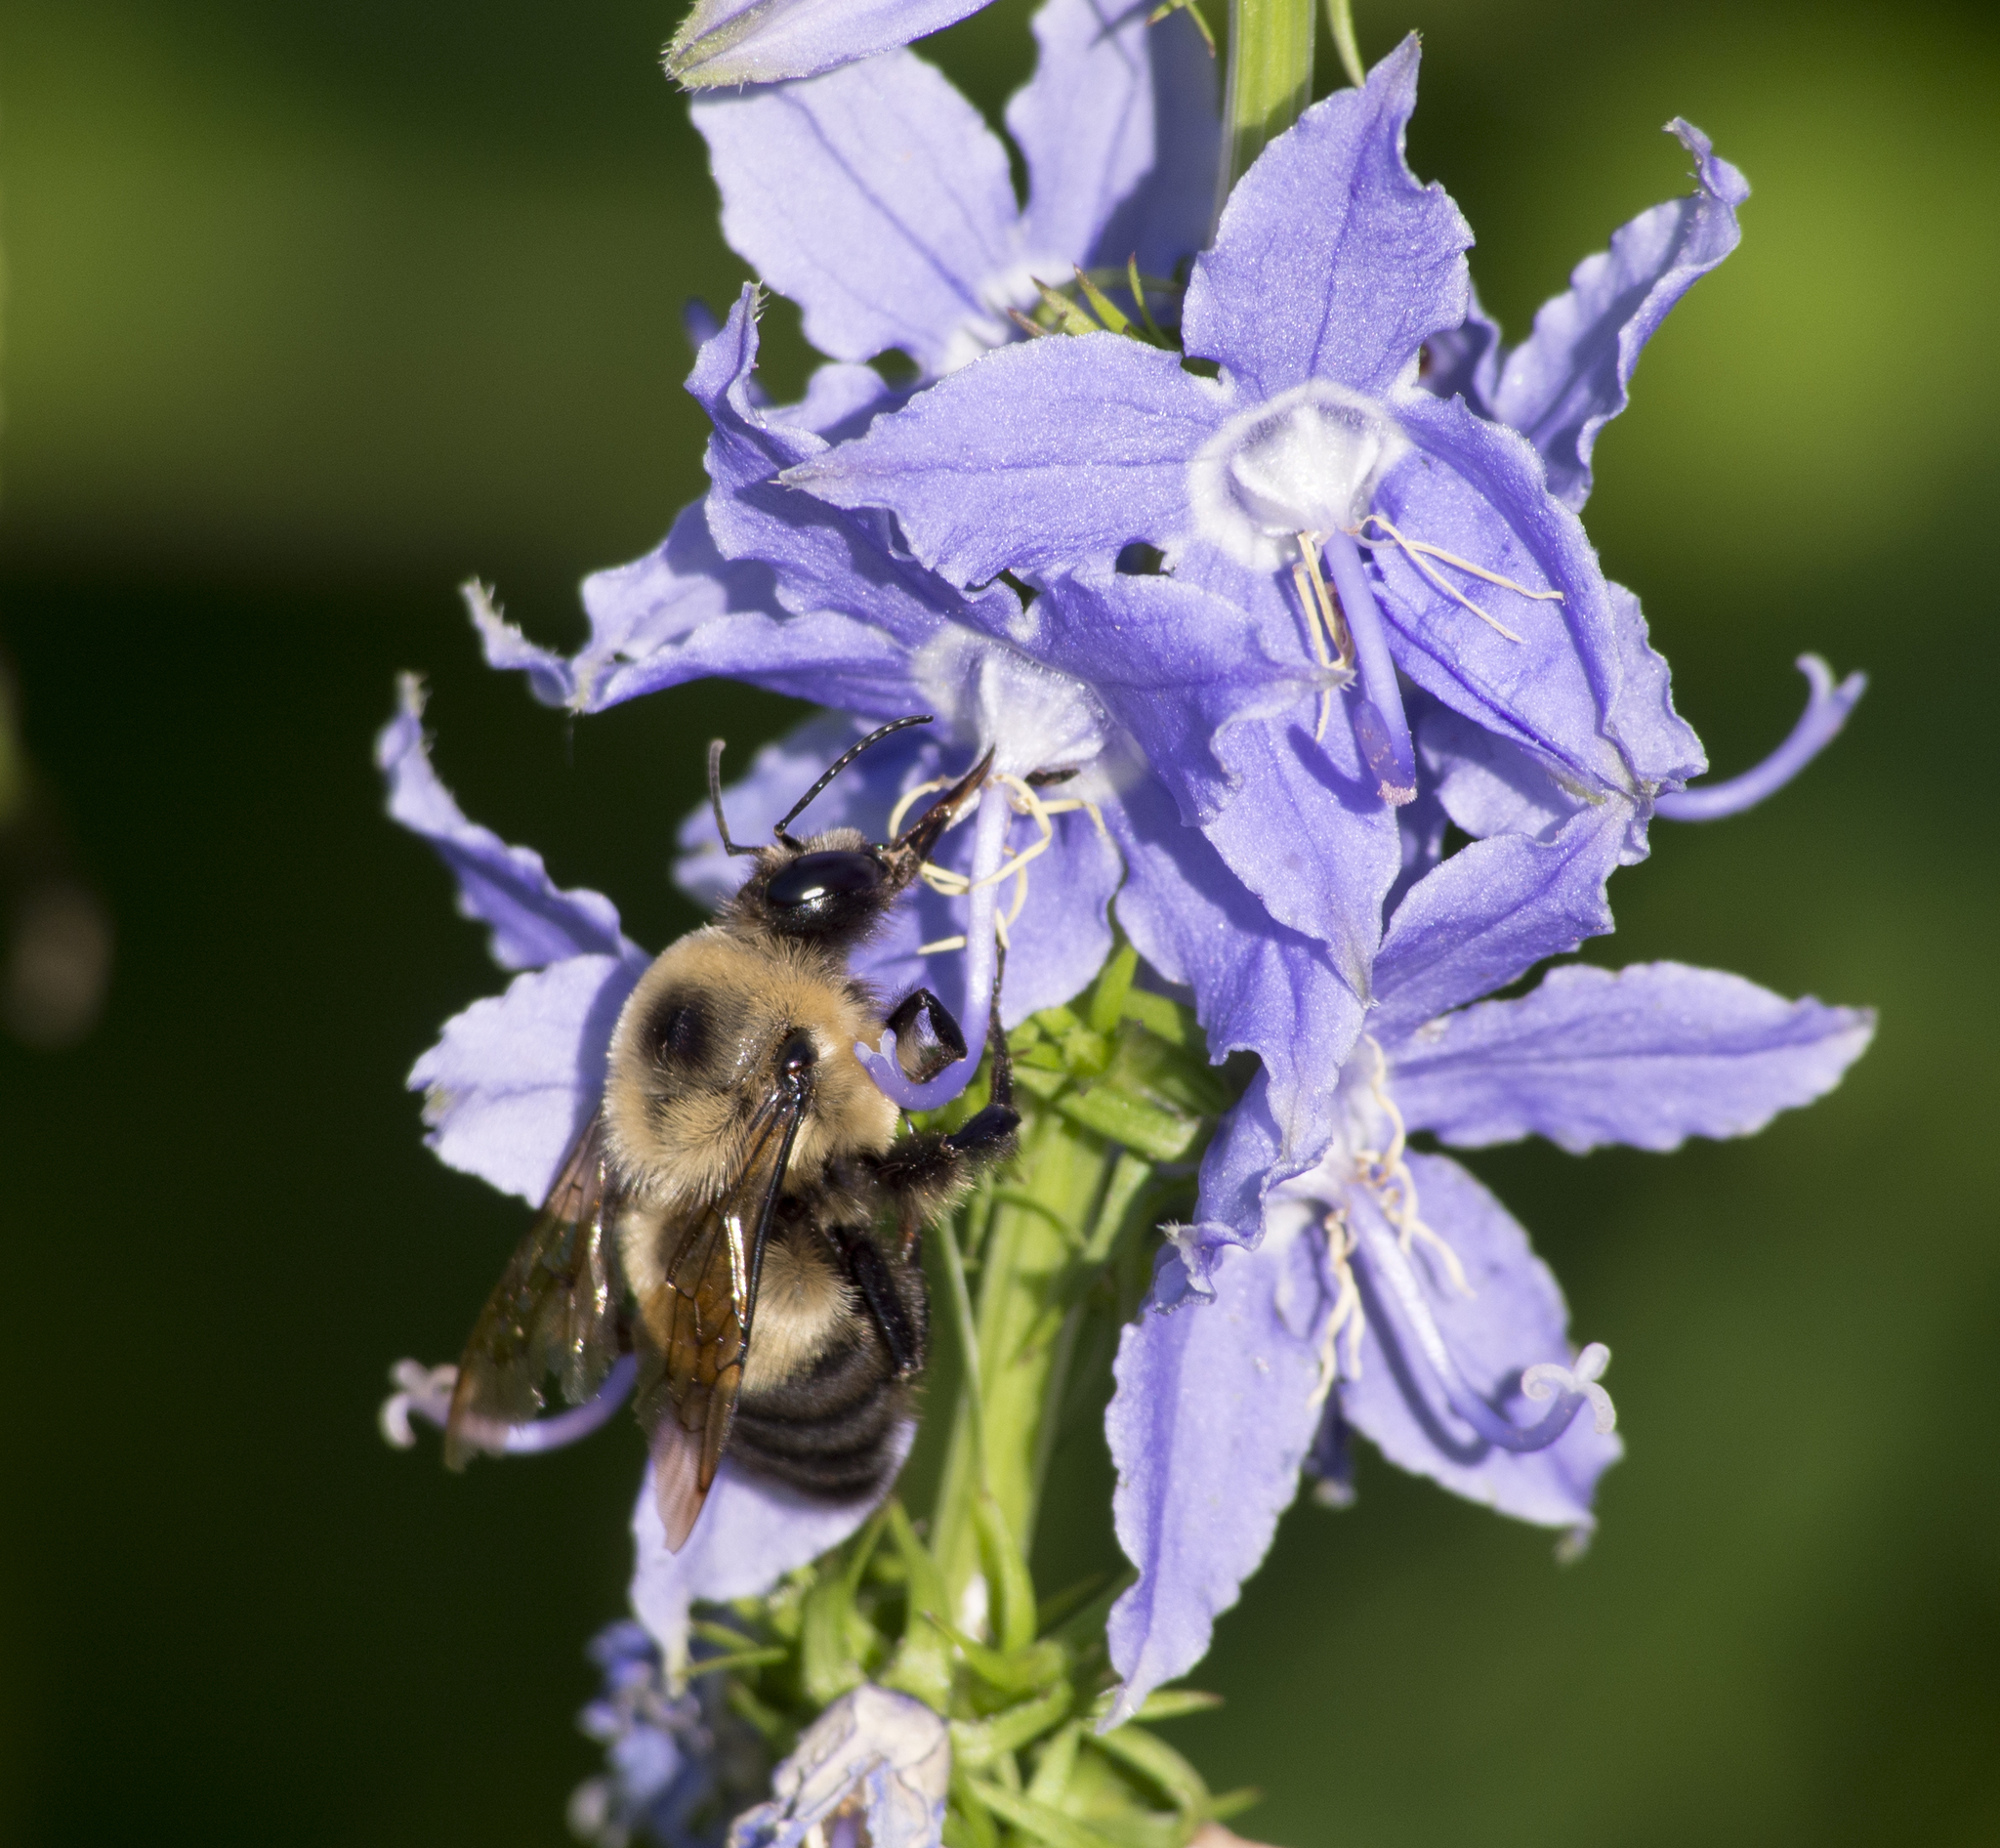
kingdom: Animalia
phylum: Arthropoda
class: Insecta
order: Hymenoptera
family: Apidae
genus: Bombus
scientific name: Bombus griseocollis
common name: Brown-belted bumble bee
